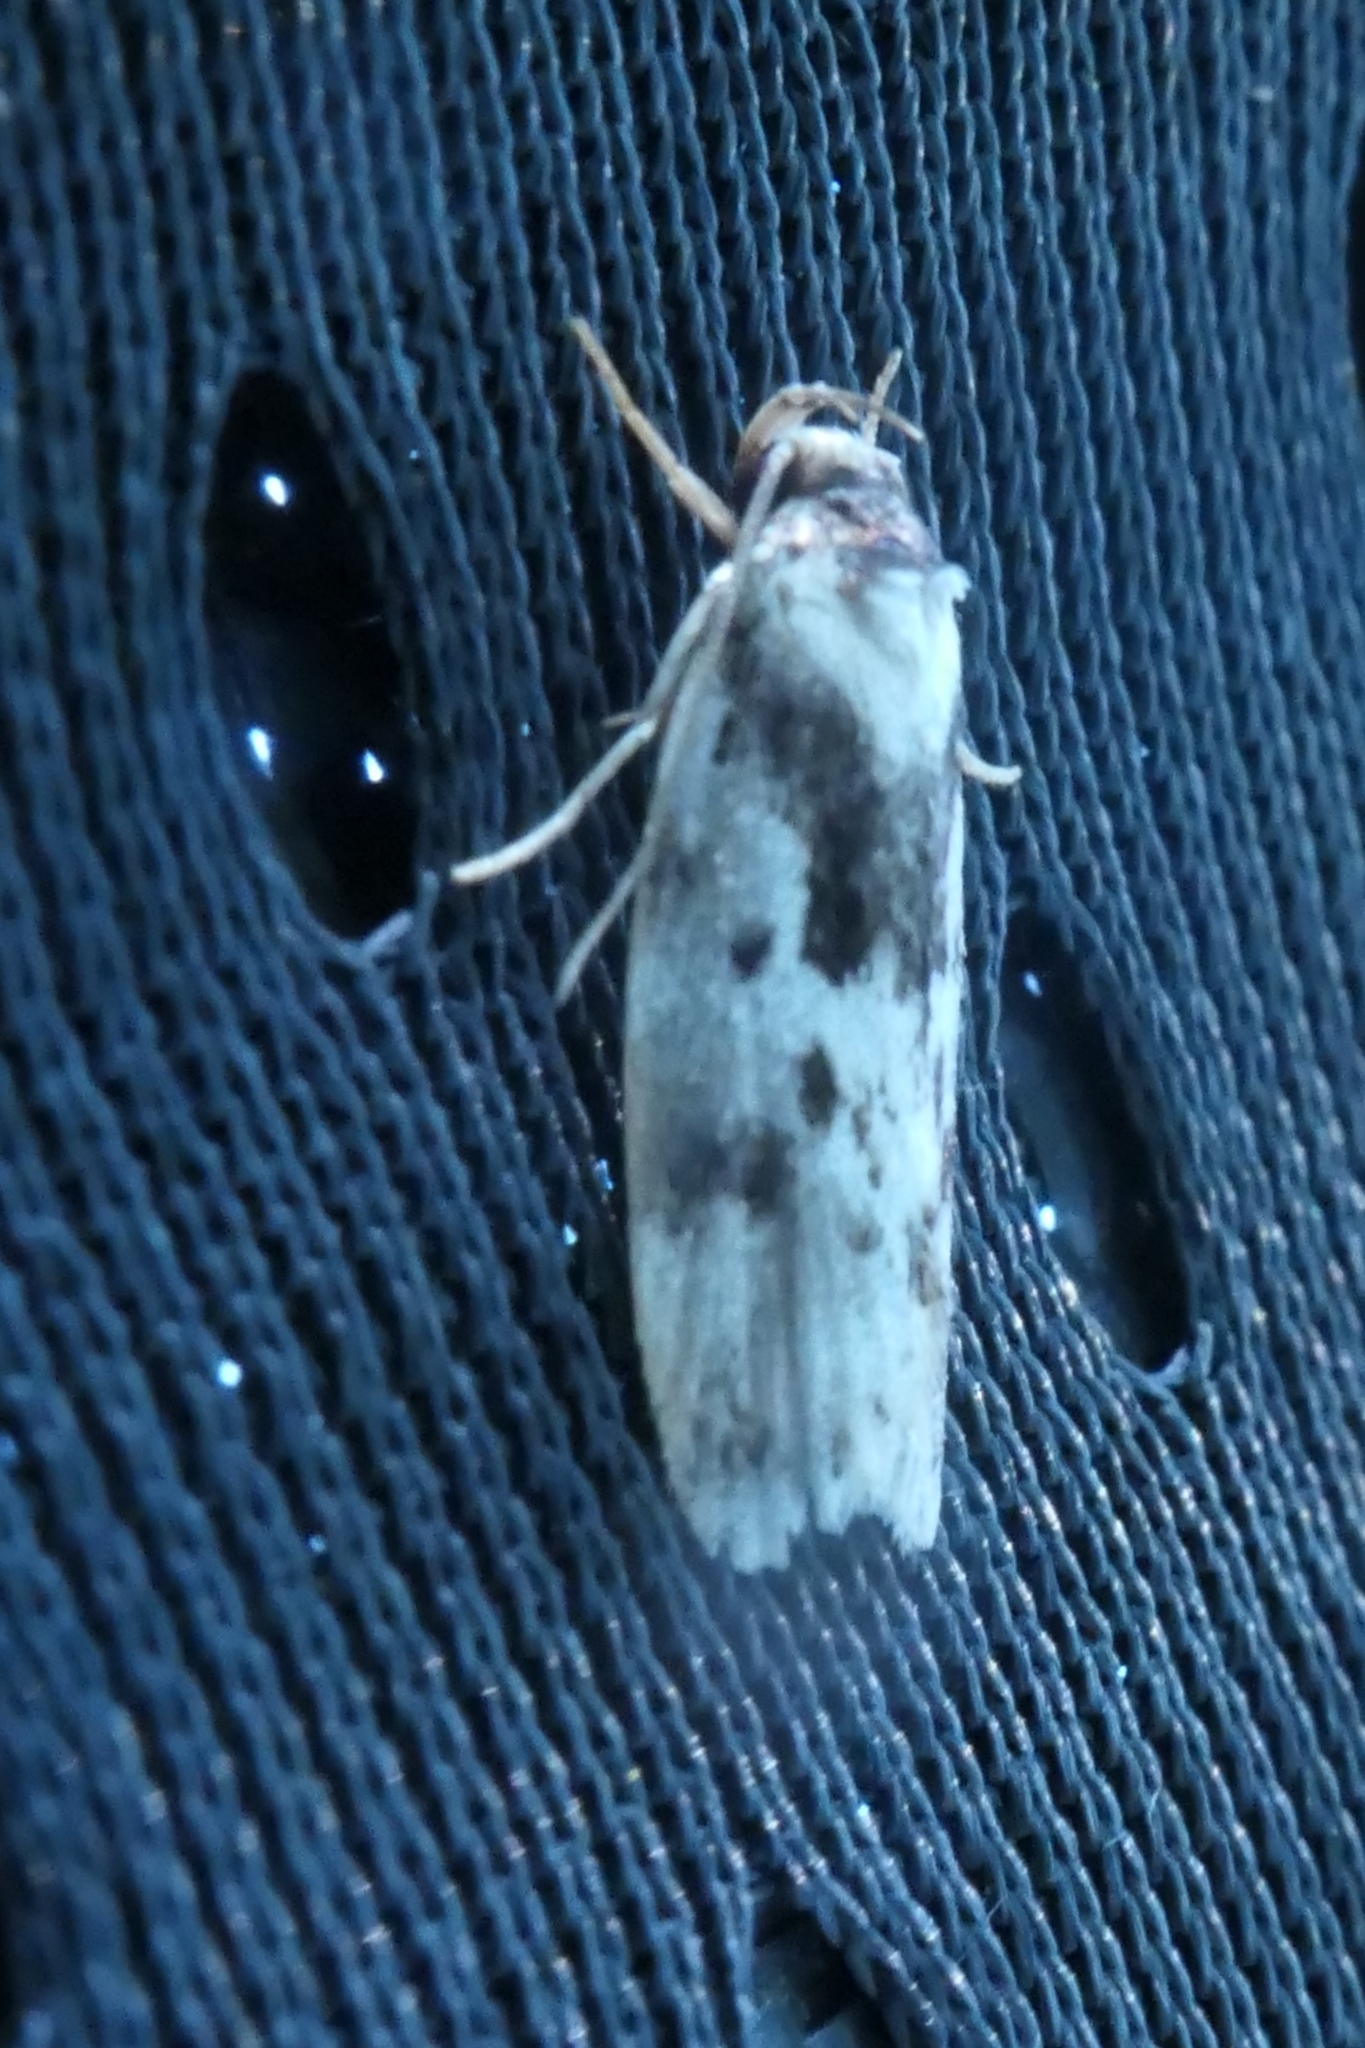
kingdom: Animalia
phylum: Arthropoda
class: Insecta
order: Lepidoptera
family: Oecophoridae
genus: Barea
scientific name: Barea confusella
